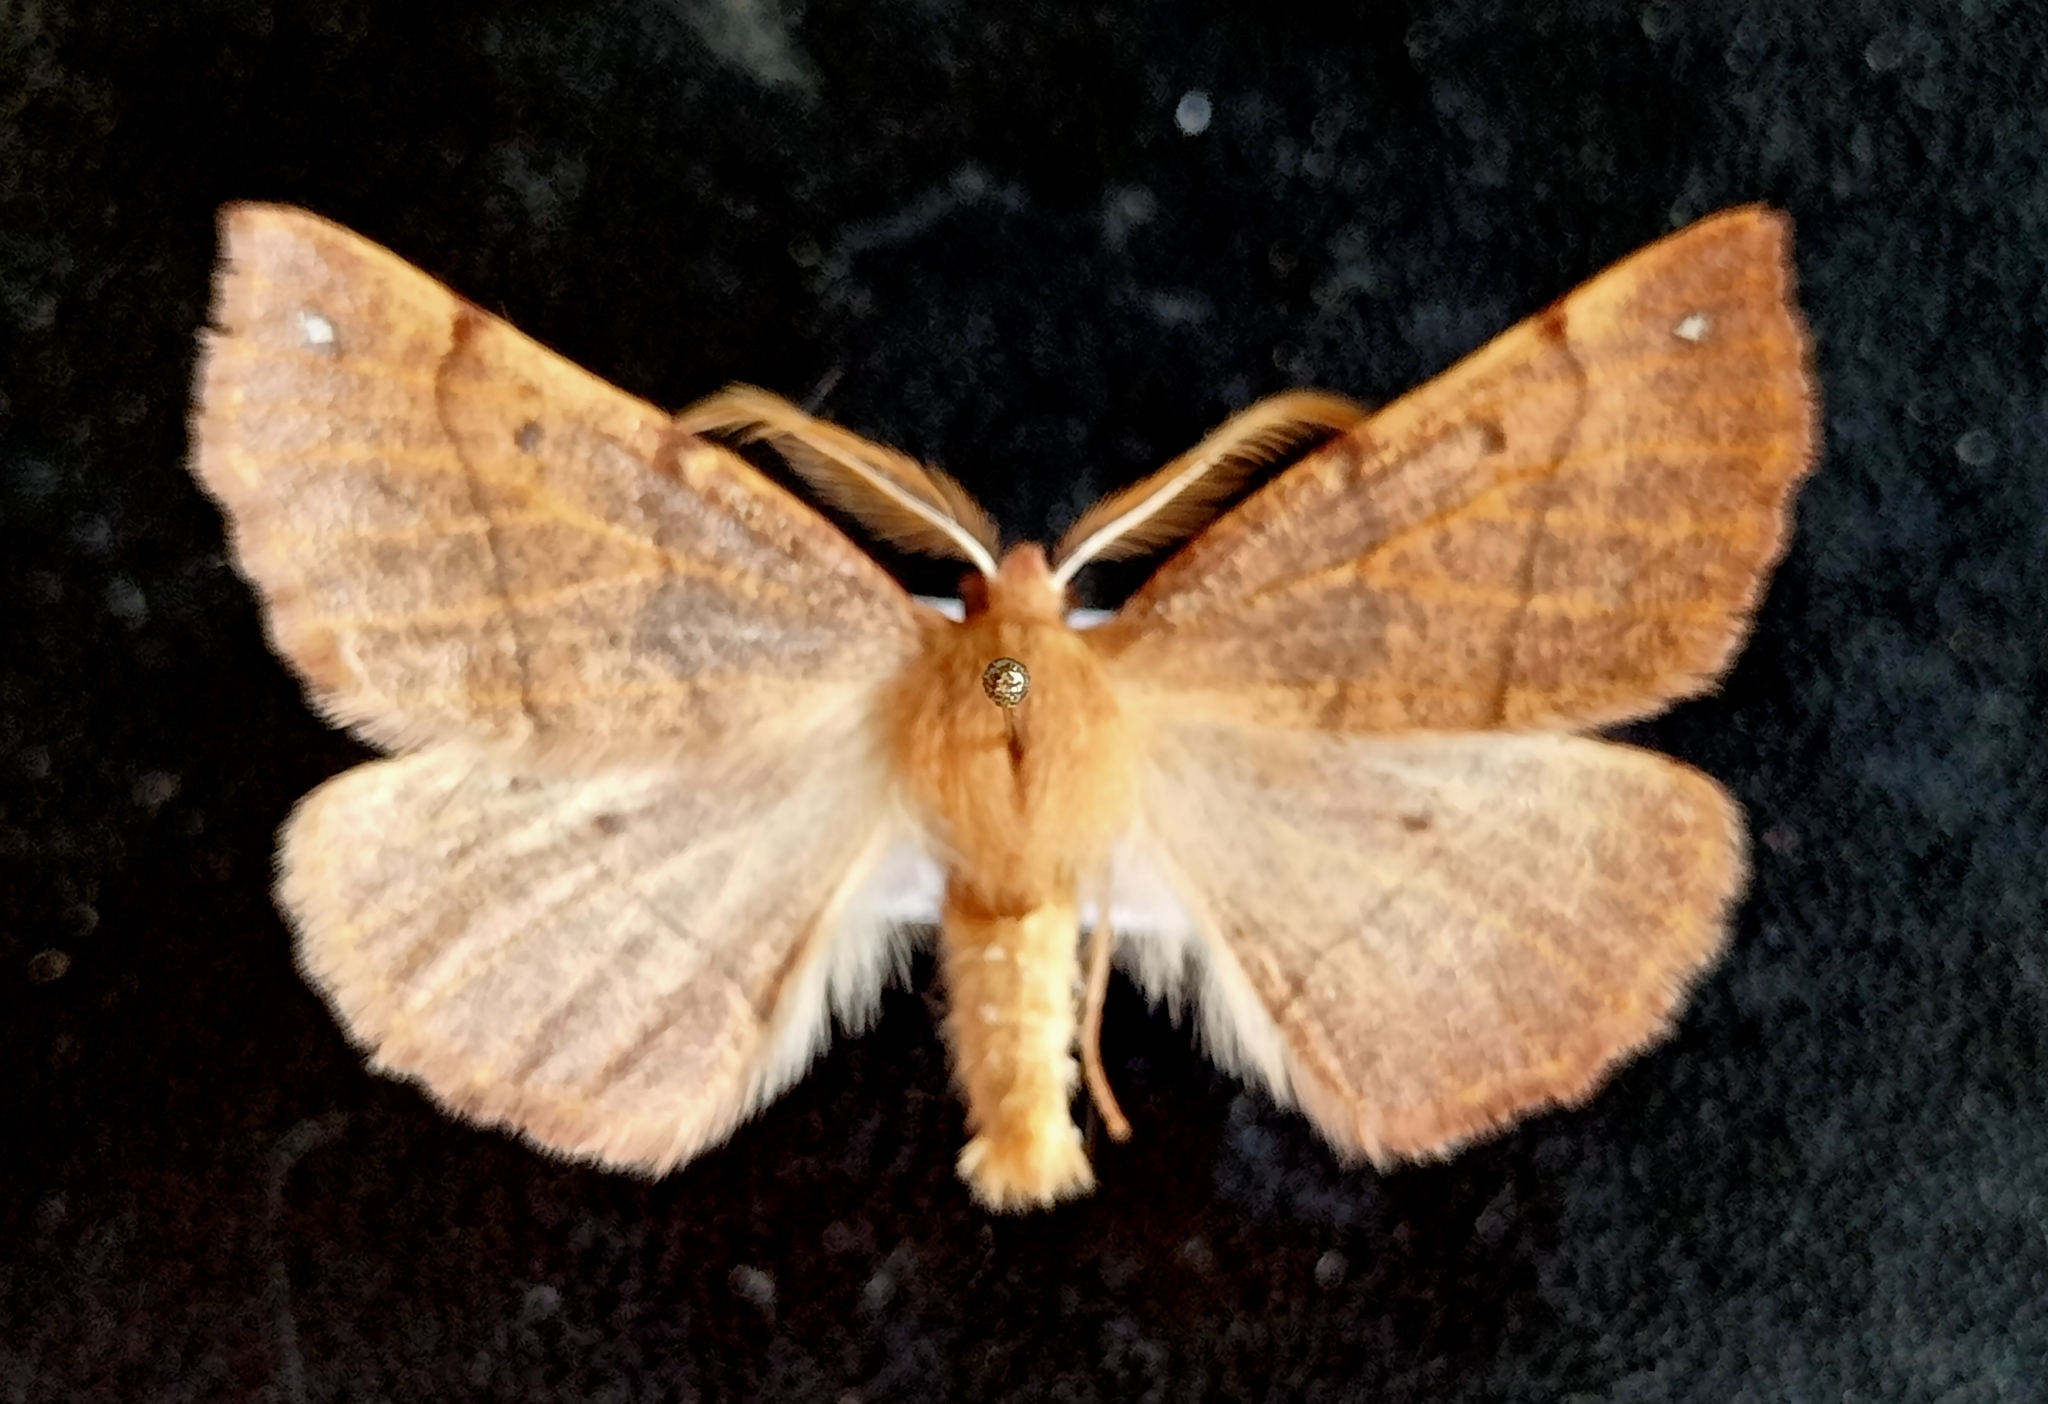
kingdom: Animalia
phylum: Arthropoda
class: Insecta
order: Lepidoptera
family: Geometridae
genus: Colotois
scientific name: Colotois pennaria
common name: Feathered thorn
